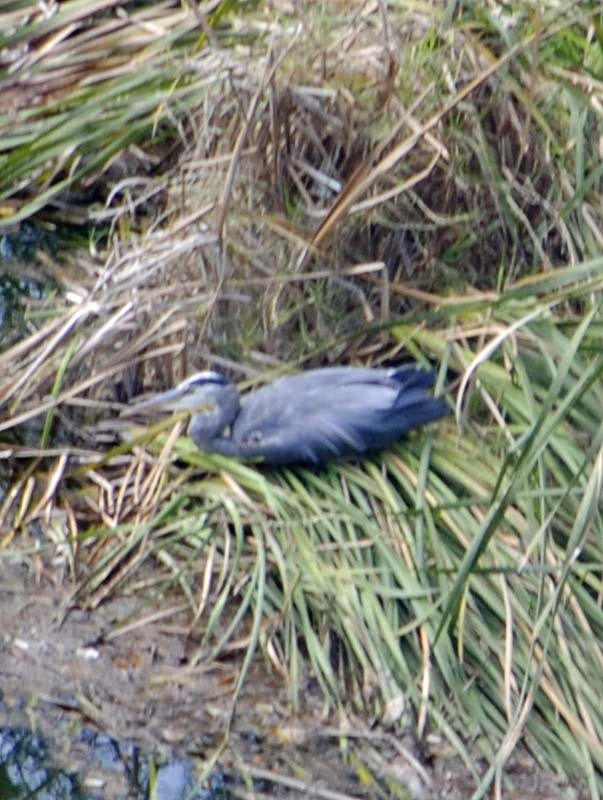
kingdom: Animalia
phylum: Chordata
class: Aves
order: Pelecaniformes
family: Ardeidae
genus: Ardea
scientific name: Ardea herodias
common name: Great blue heron
